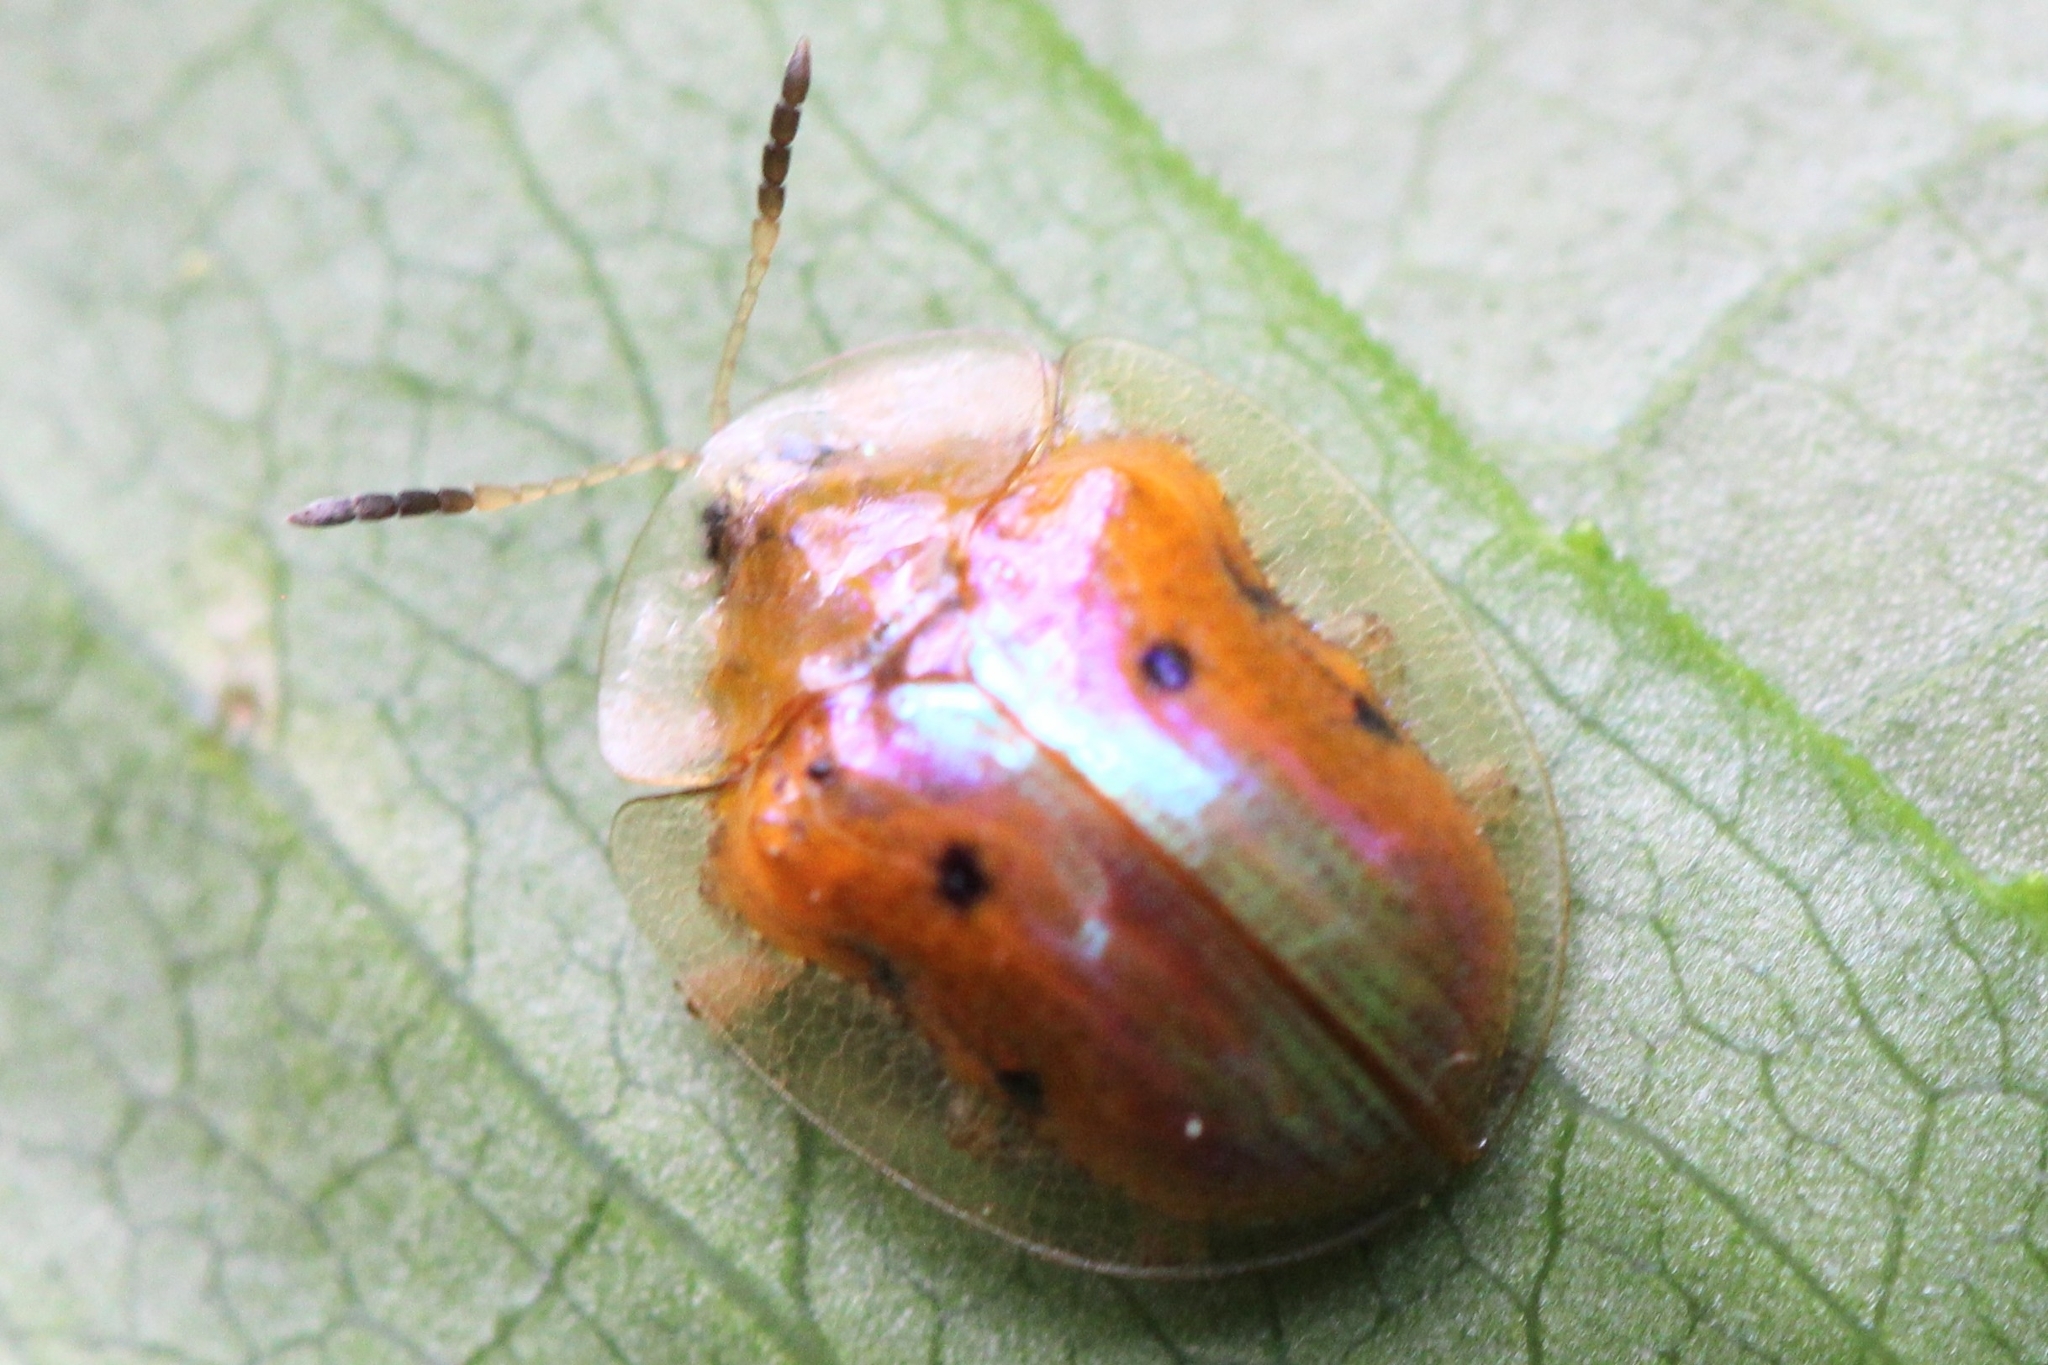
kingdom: Animalia
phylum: Arthropoda
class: Insecta
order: Coleoptera
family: Chrysomelidae
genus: Charidotella
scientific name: Charidotella sexpunctata
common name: Golden tortoise beetle
